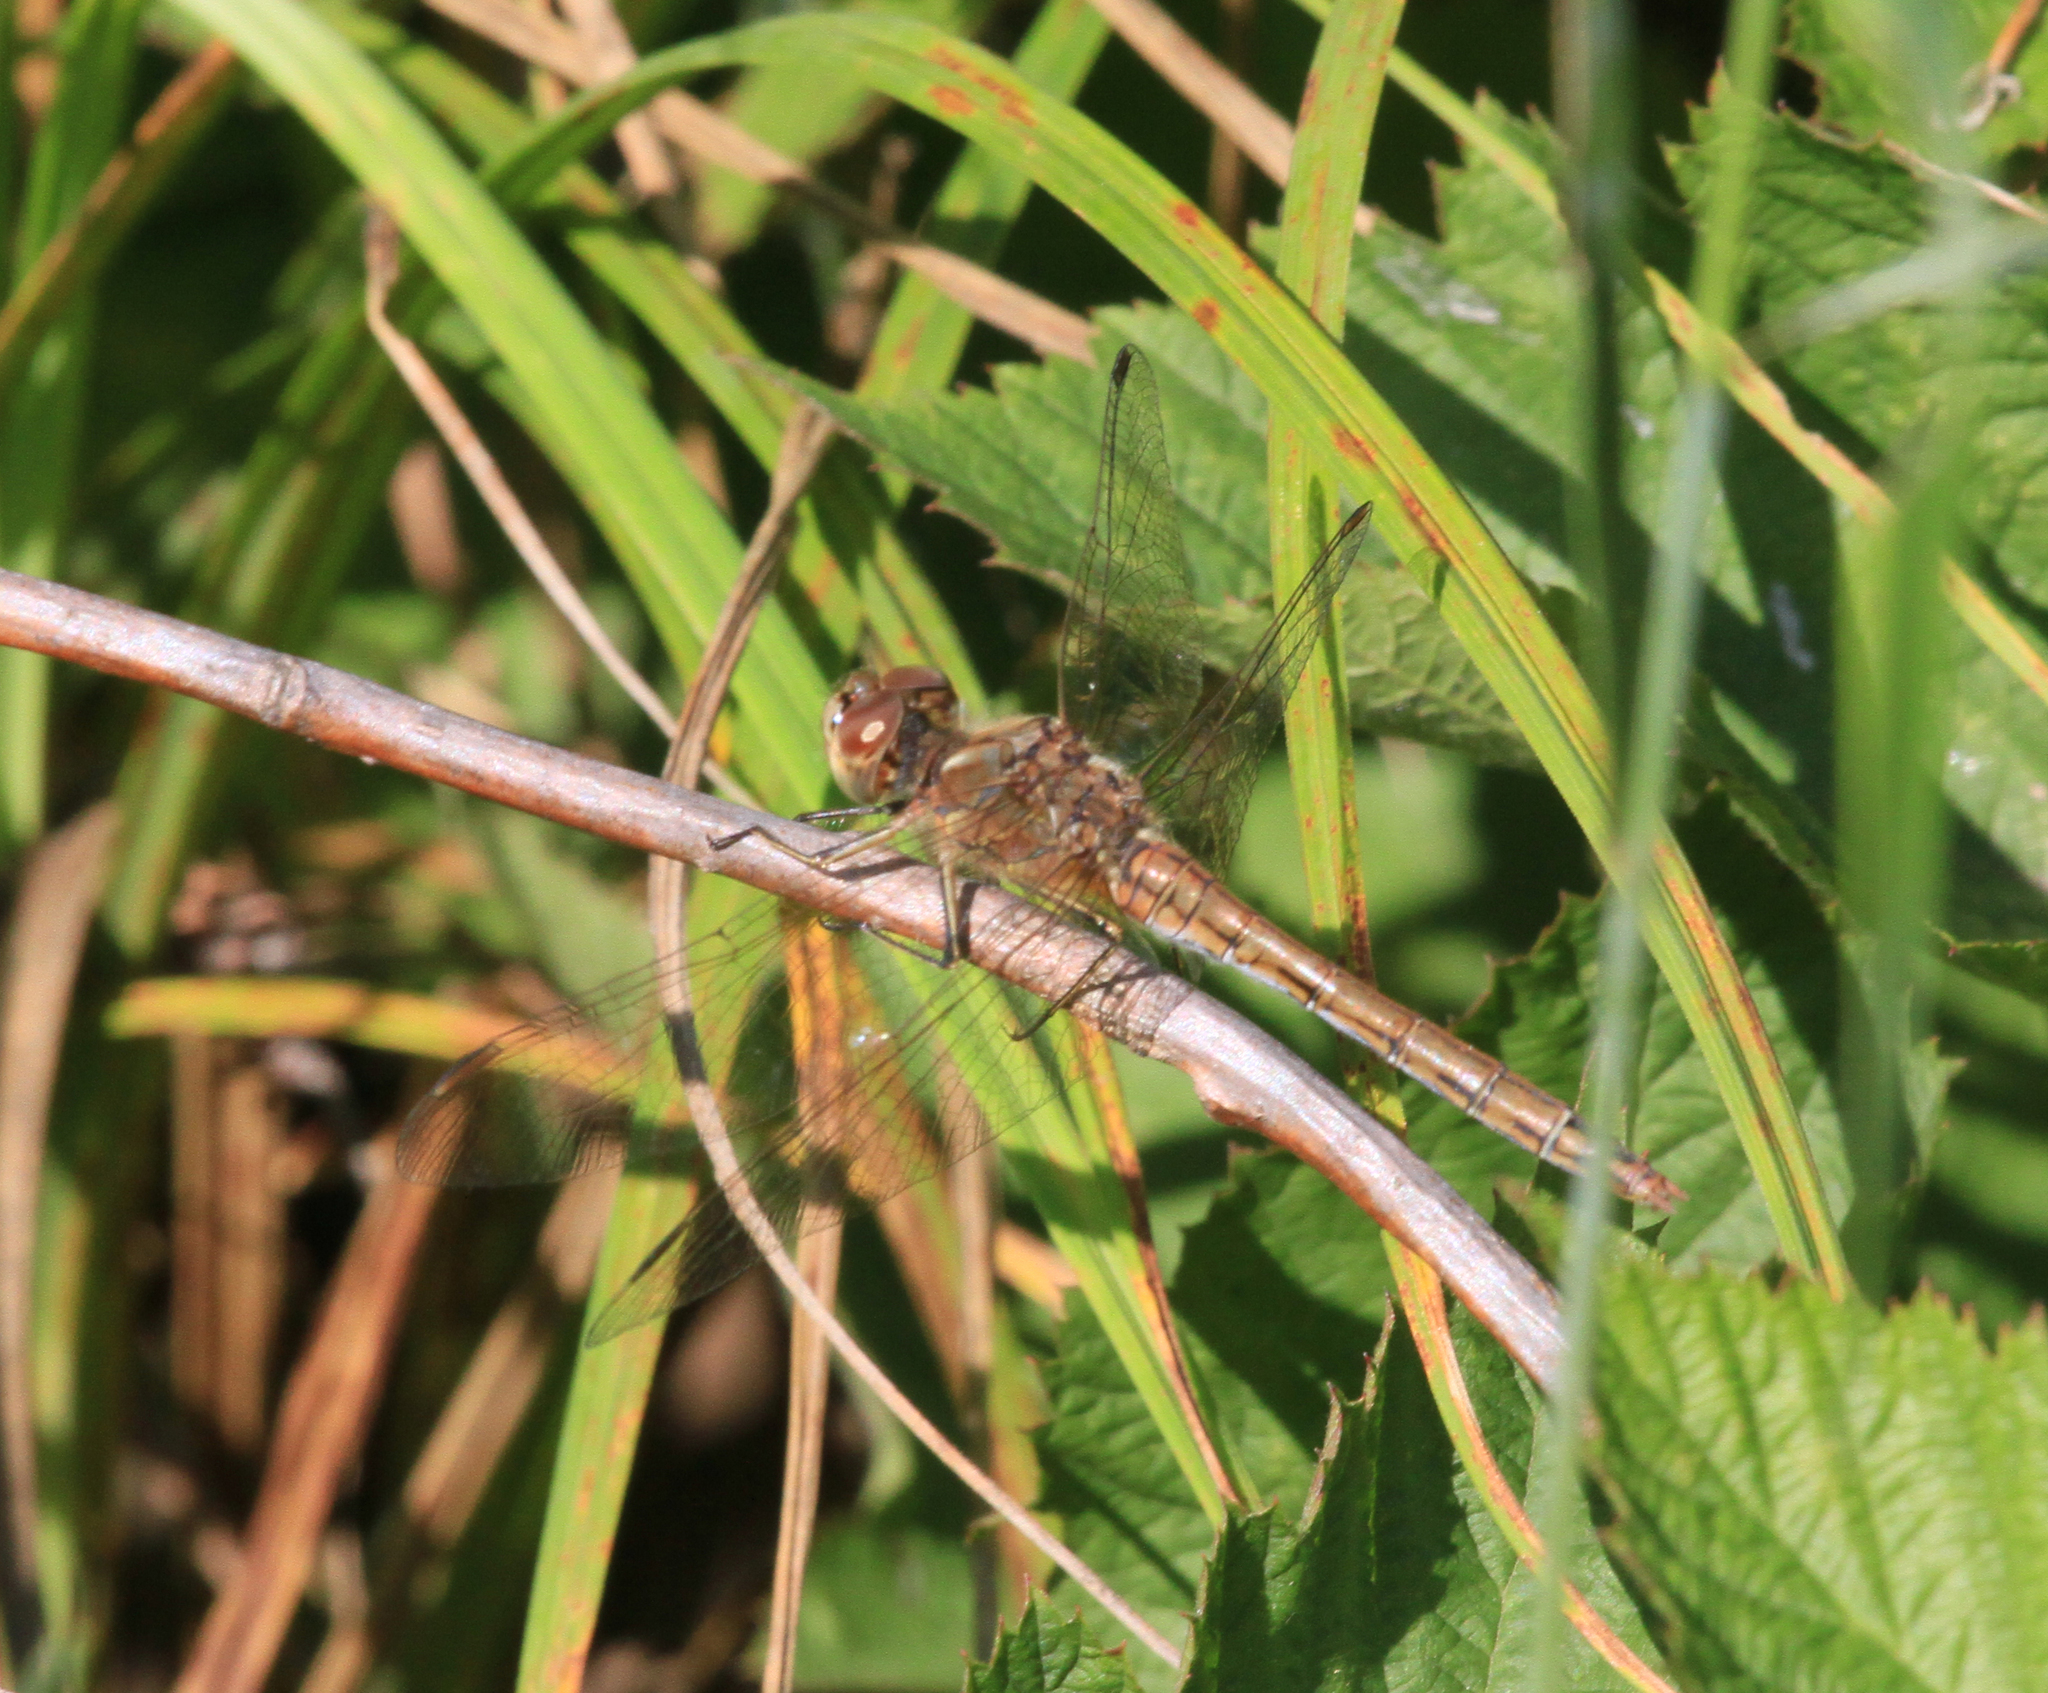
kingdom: Animalia
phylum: Arthropoda
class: Insecta
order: Odonata
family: Libellulidae
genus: Sympetrum
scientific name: Sympetrum vulgatum
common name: Vagrant darter
